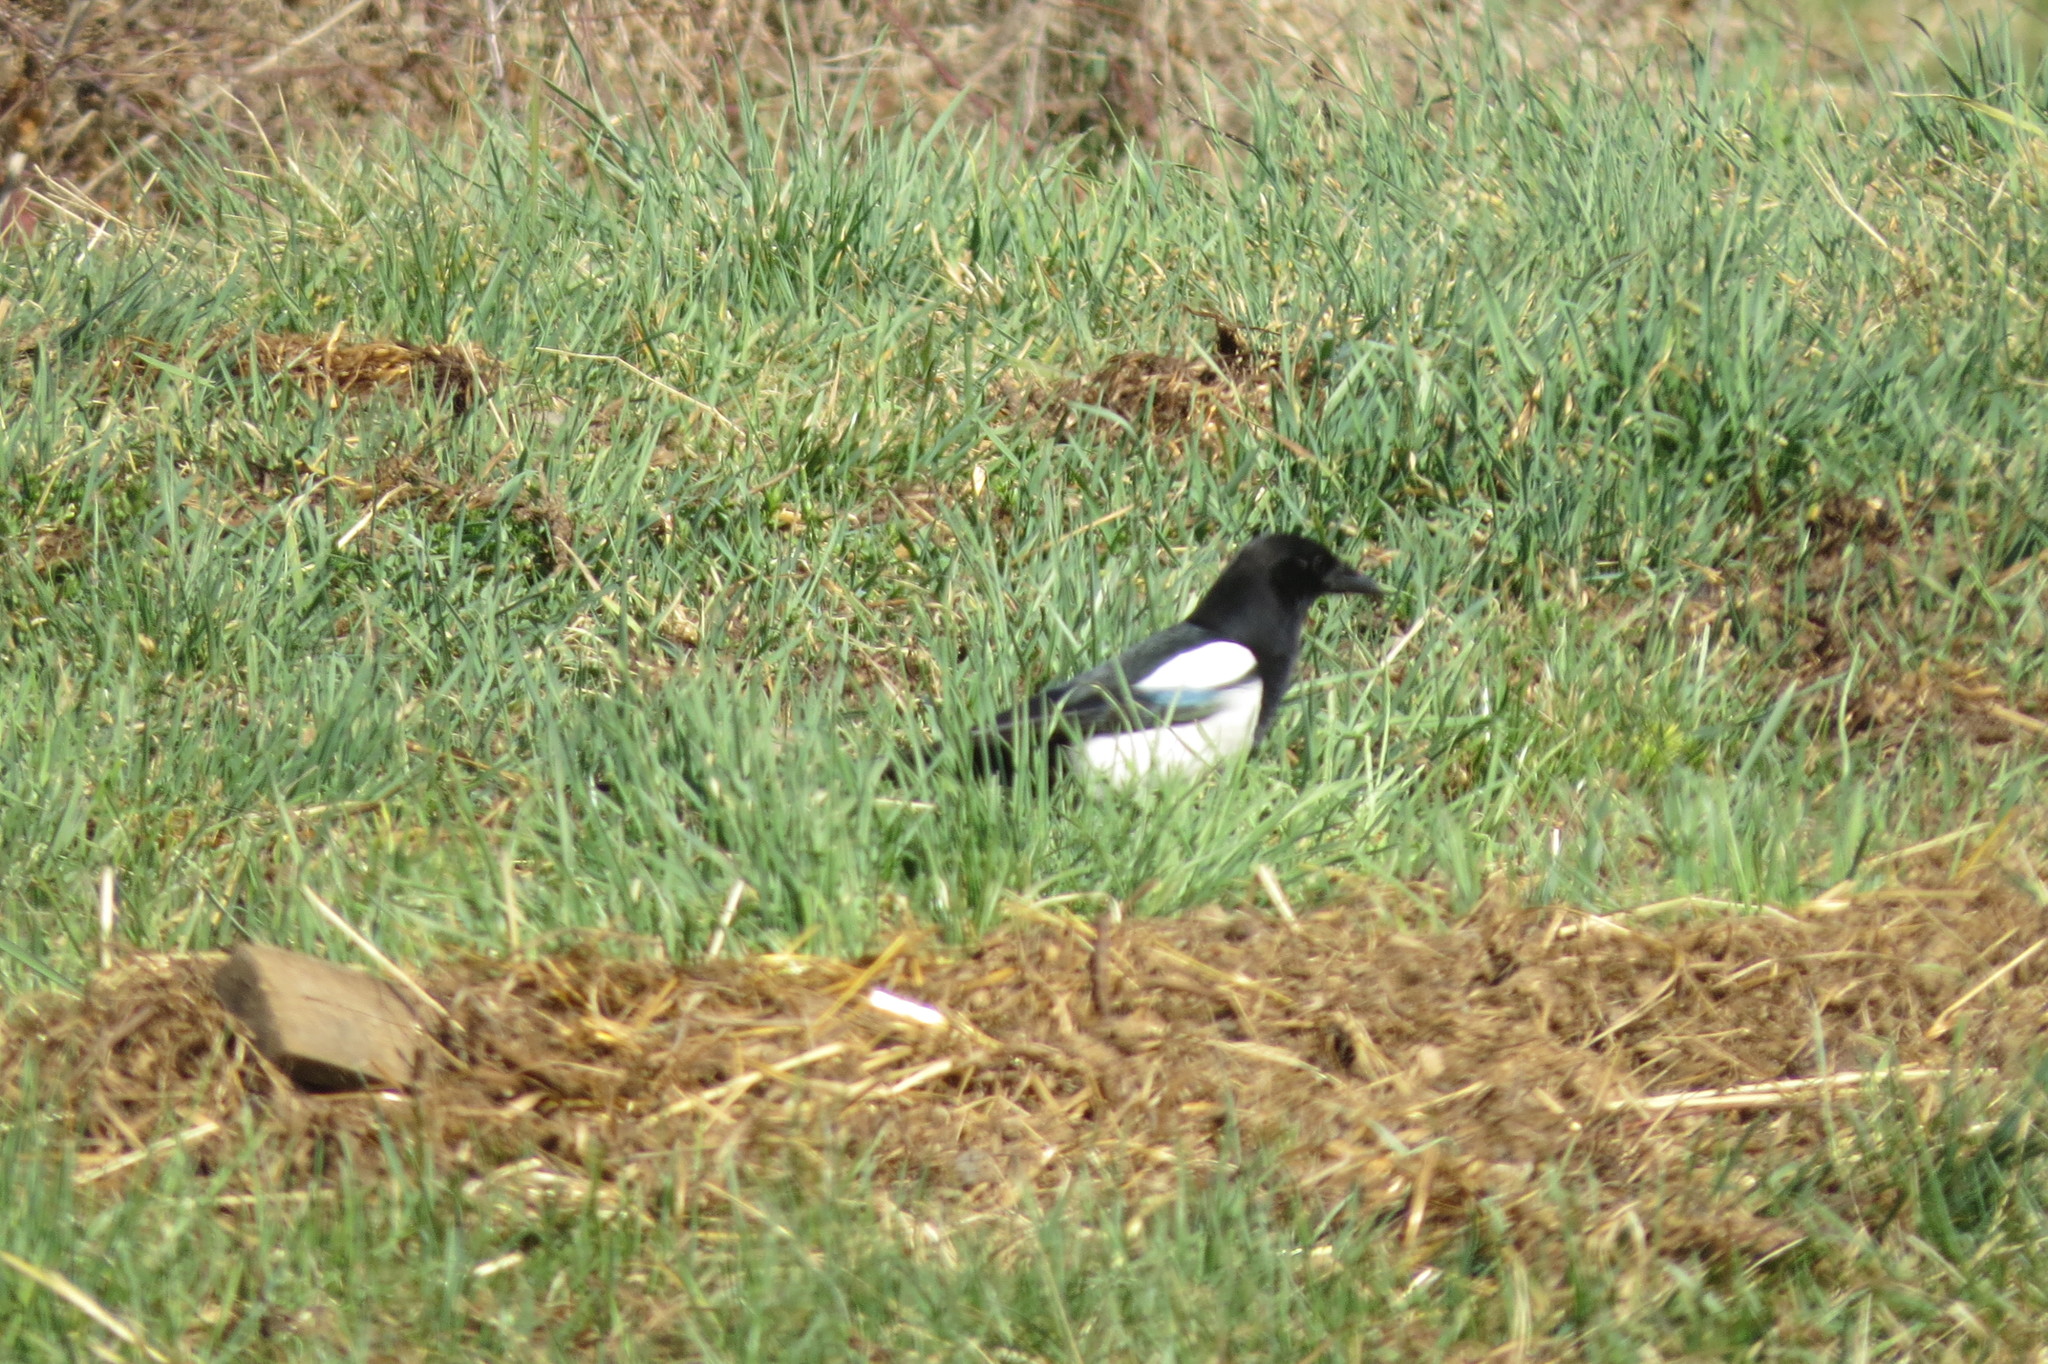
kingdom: Animalia
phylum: Chordata
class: Aves
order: Passeriformes
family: Corvidae
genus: Pica
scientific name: Pica pica
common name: Eurasian magpie
